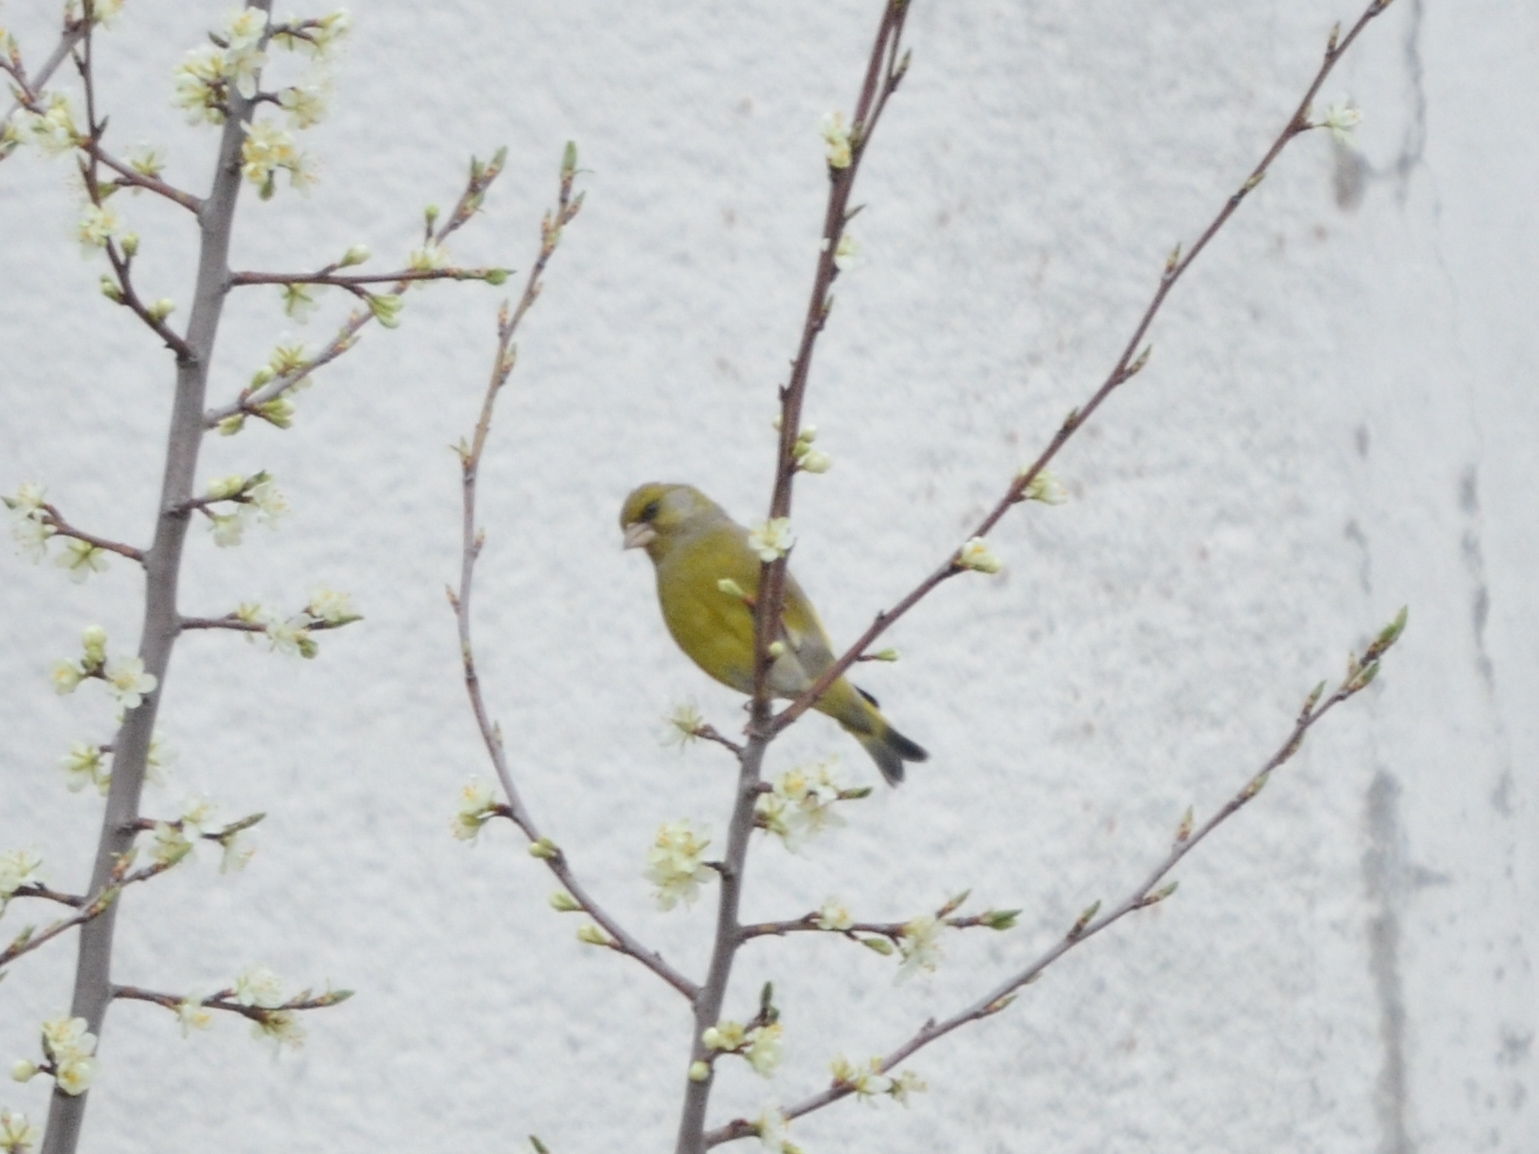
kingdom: Plantae
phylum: Tracheophyta
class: Liliopsida
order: Poales
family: Poaceae
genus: Chloris
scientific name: Chloris chloris
